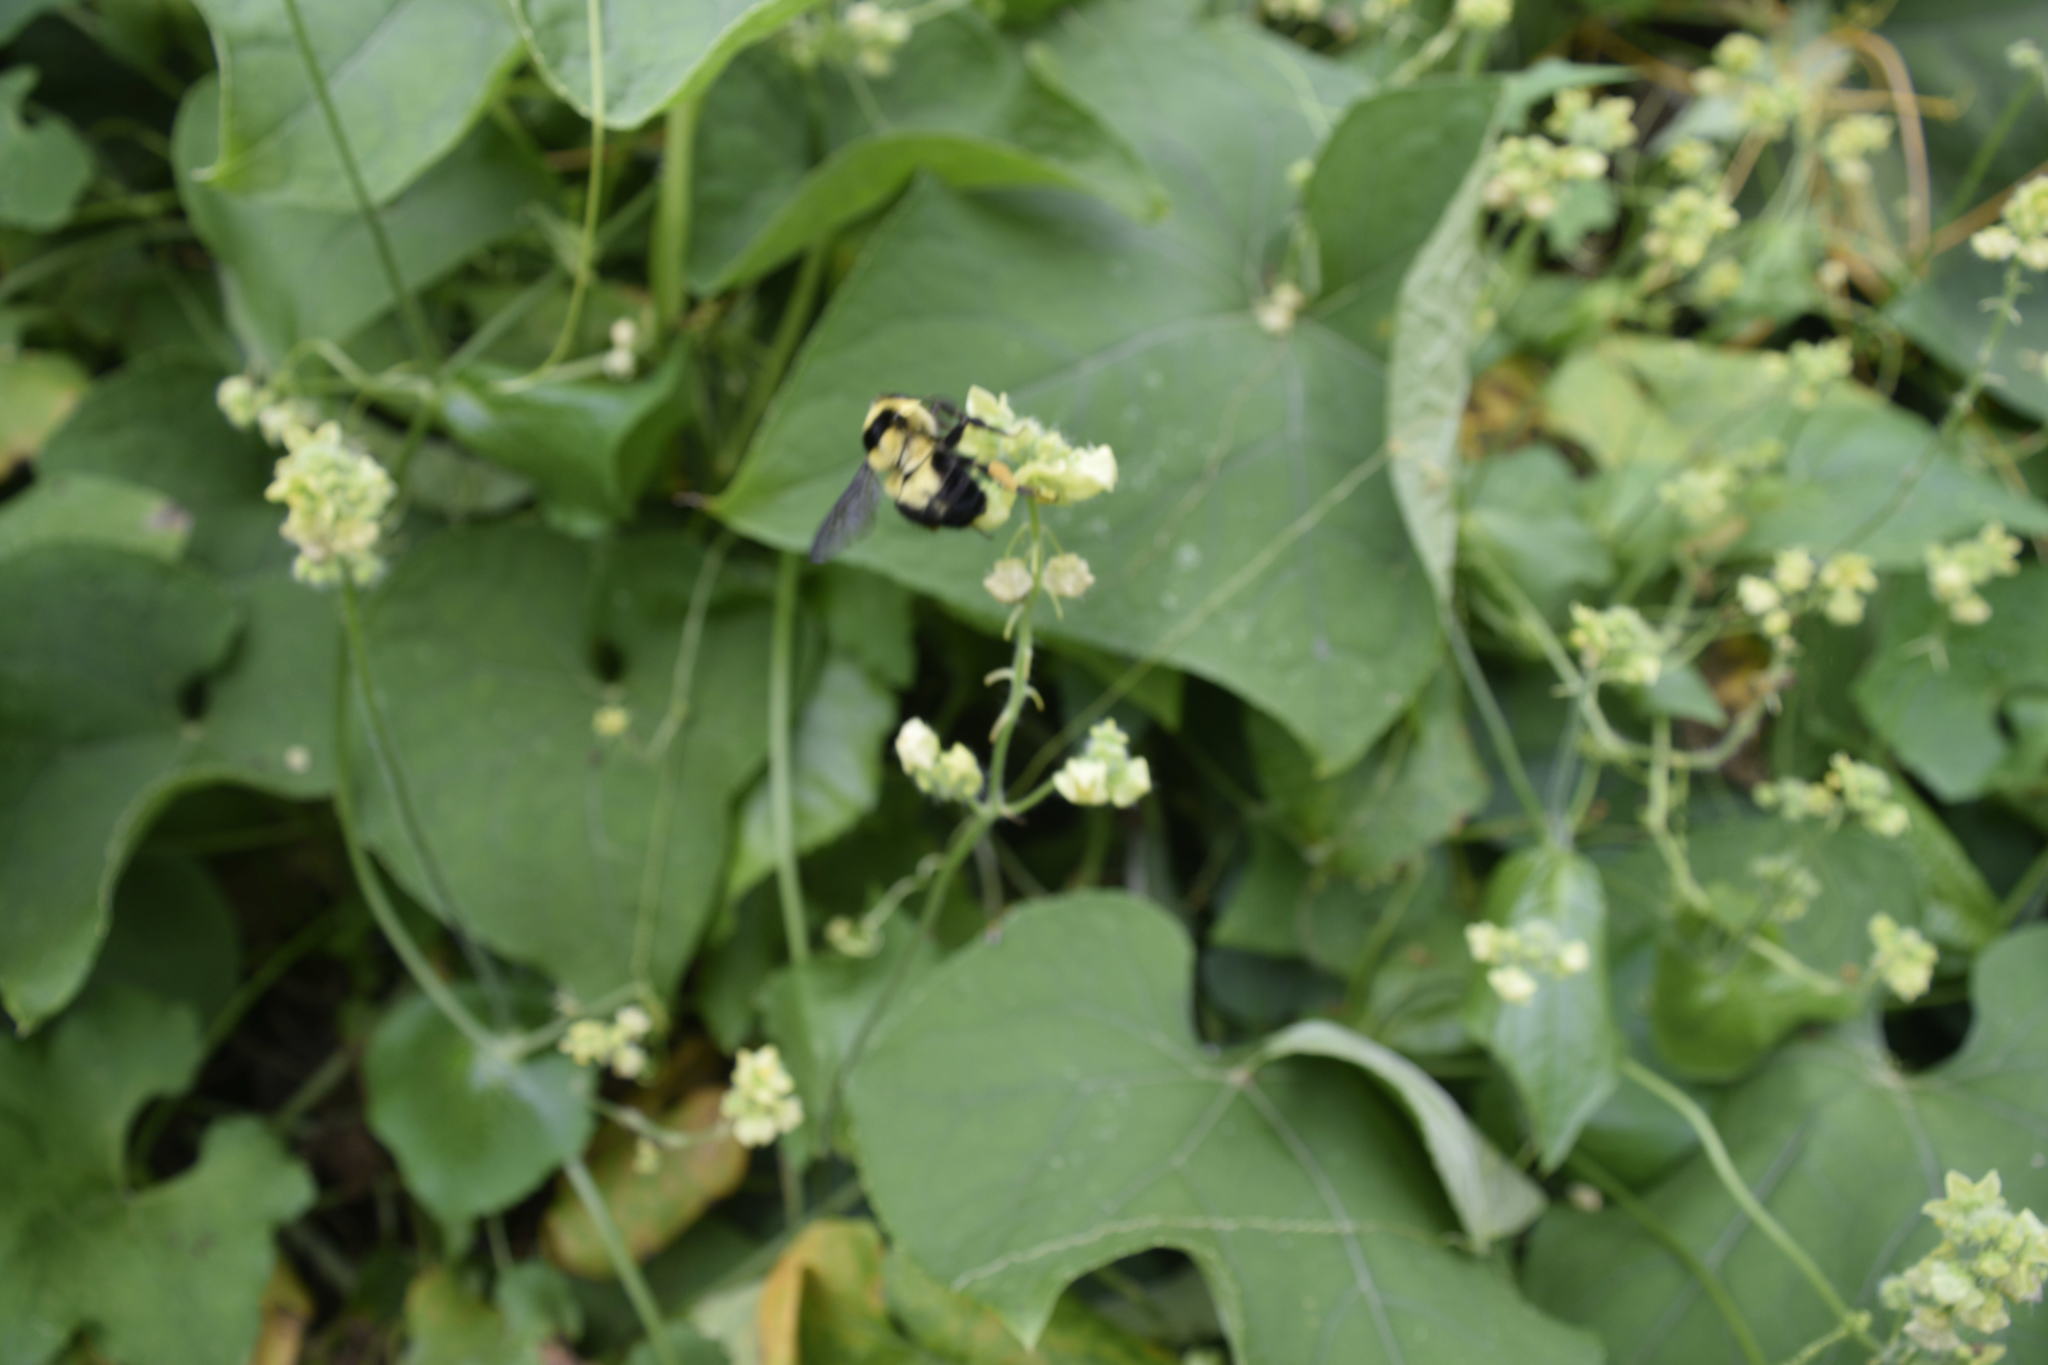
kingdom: Animalia
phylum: Arthropoda
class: Insecta
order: Hymenoptera
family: Apidae
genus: Bombus
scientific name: Bombus wilmattae
